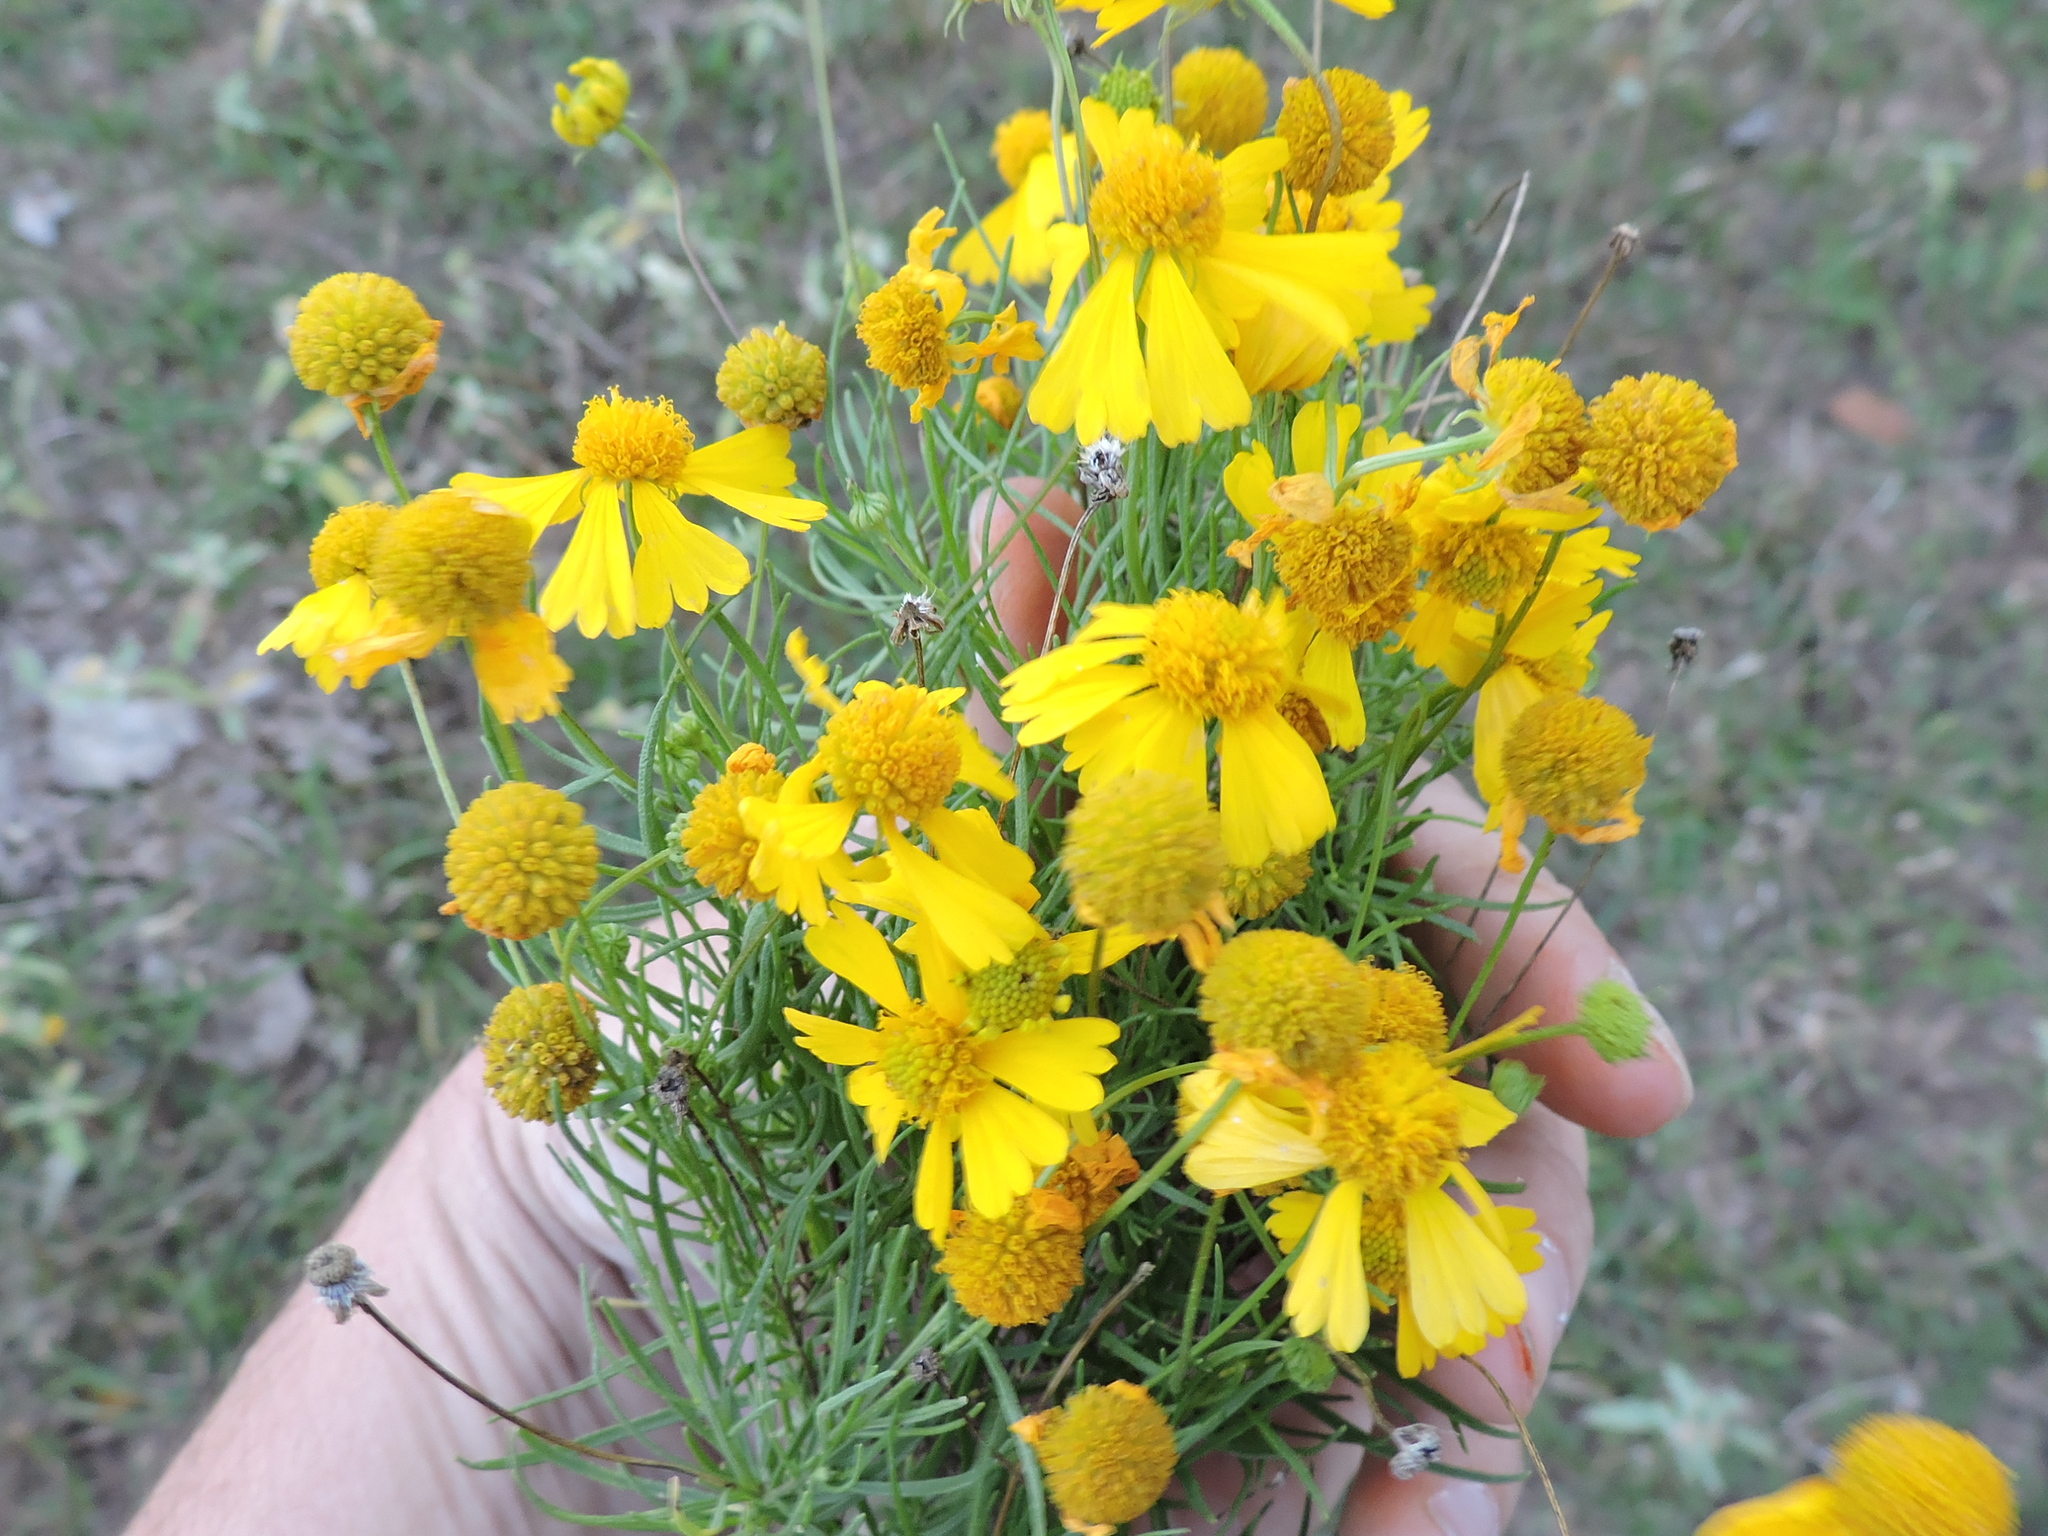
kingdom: Plantae
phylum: Tracheophyta
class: Magnoliopsida
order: Asterales
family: Asteraceae
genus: Helenium
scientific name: Helenium amarum
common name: Bitter sneezeweed
